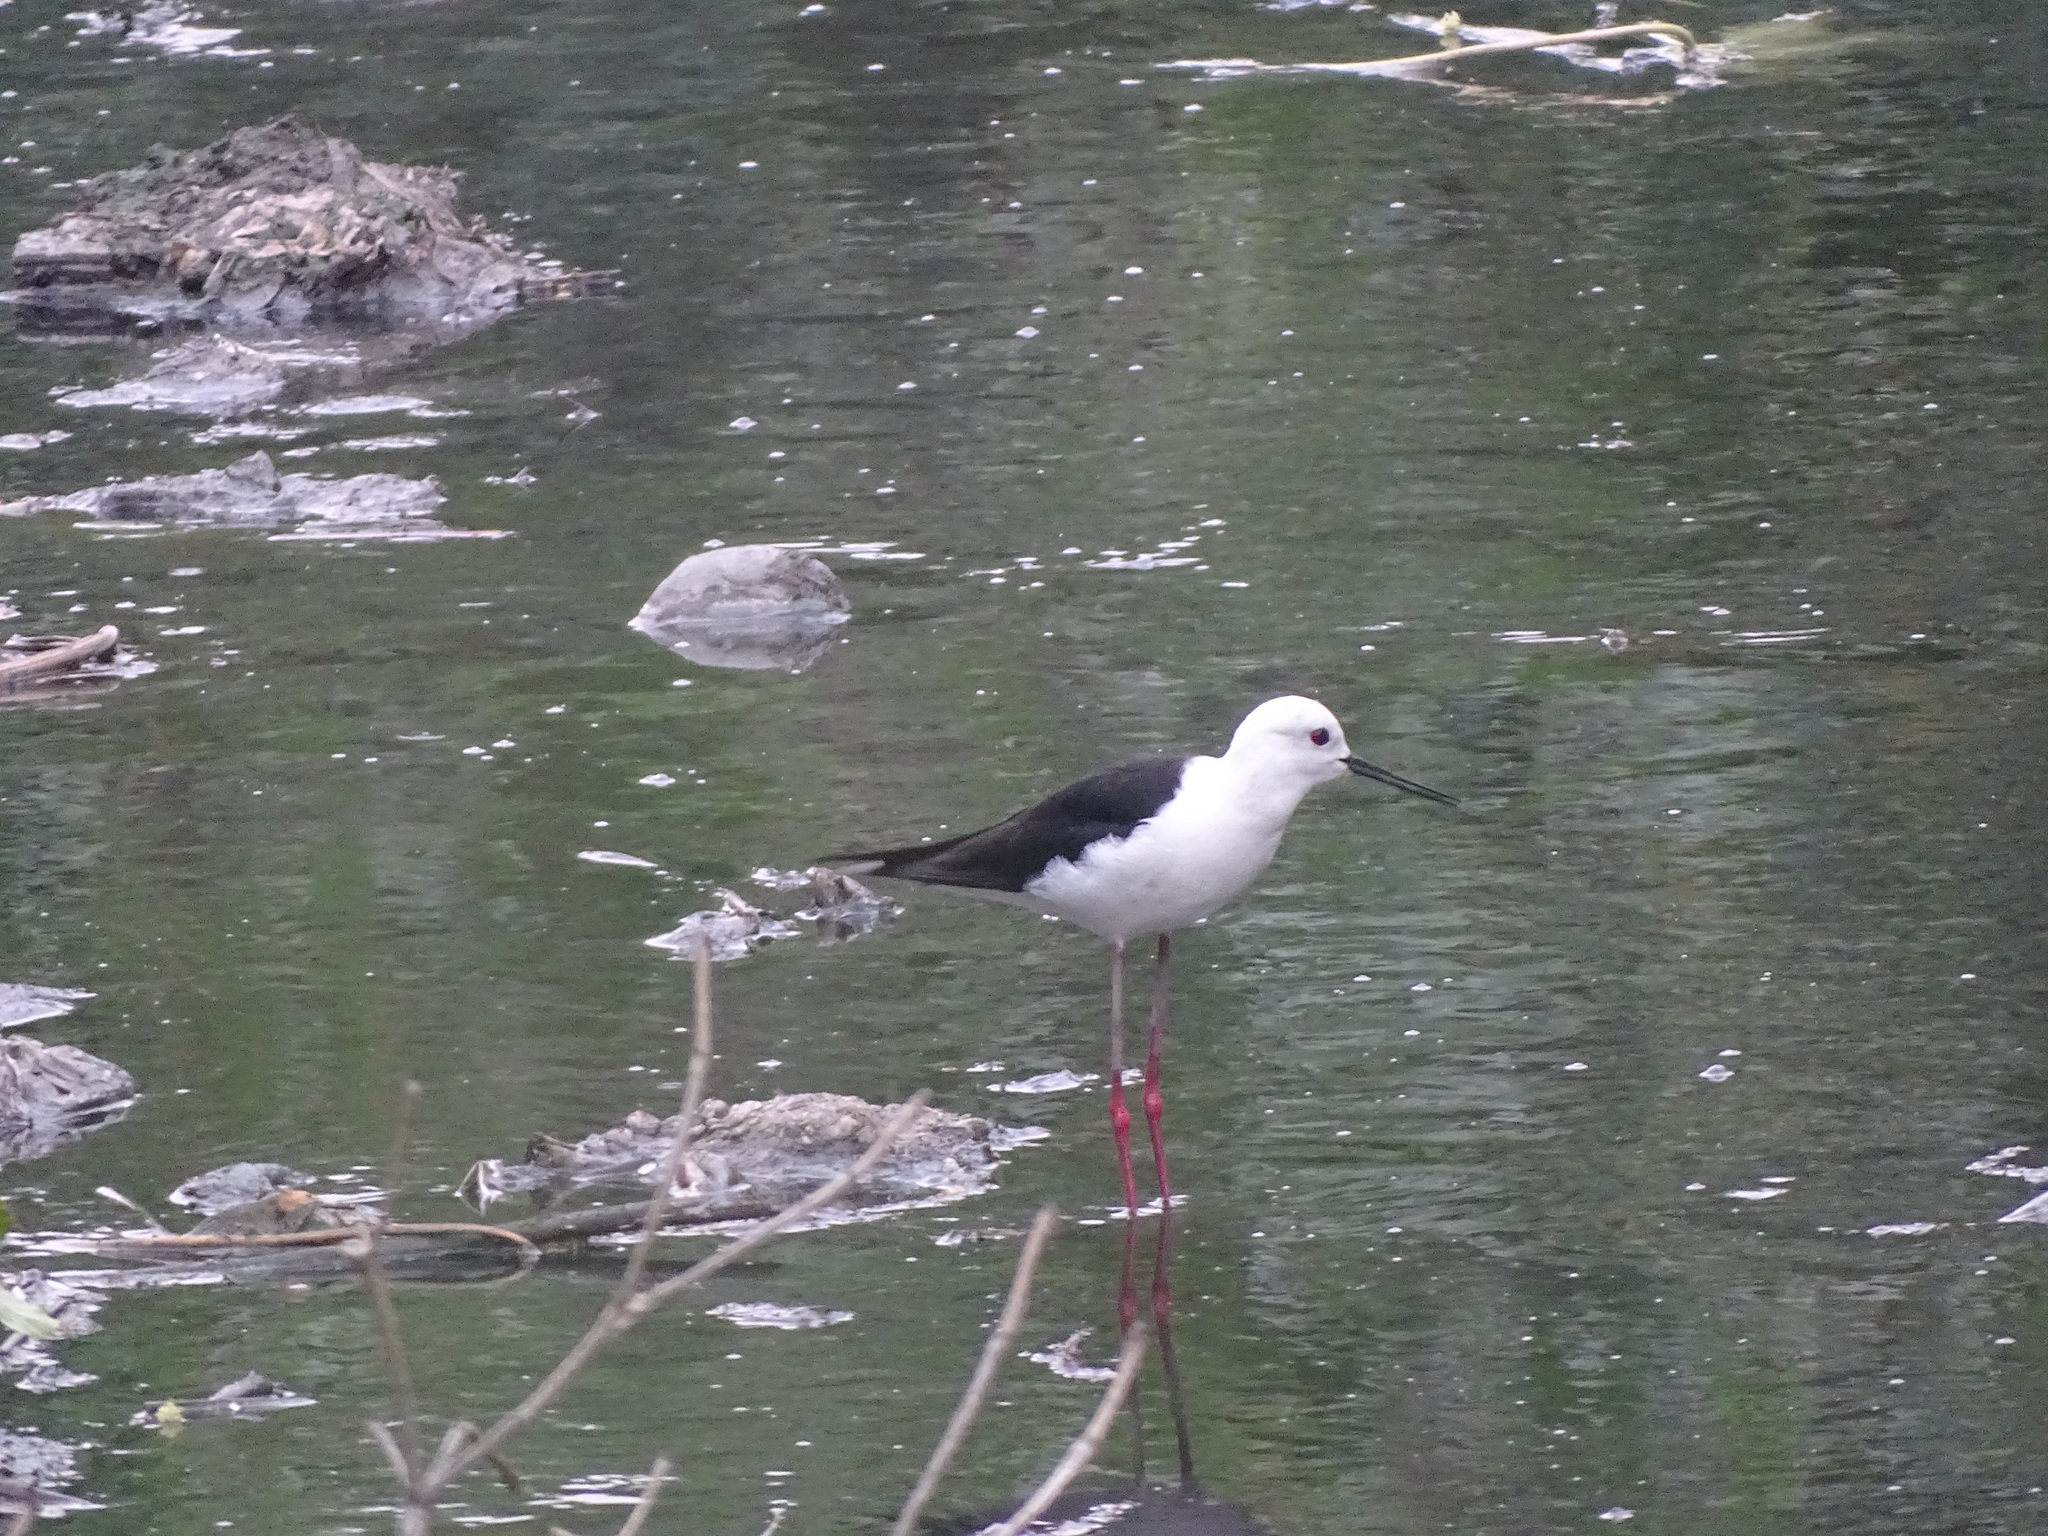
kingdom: Animalia
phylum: Chordata
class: Aves
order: Charadriiformes
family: Recurvirostridae
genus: Himantopus
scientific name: Himantopus himantopus
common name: Black-winged stilt
